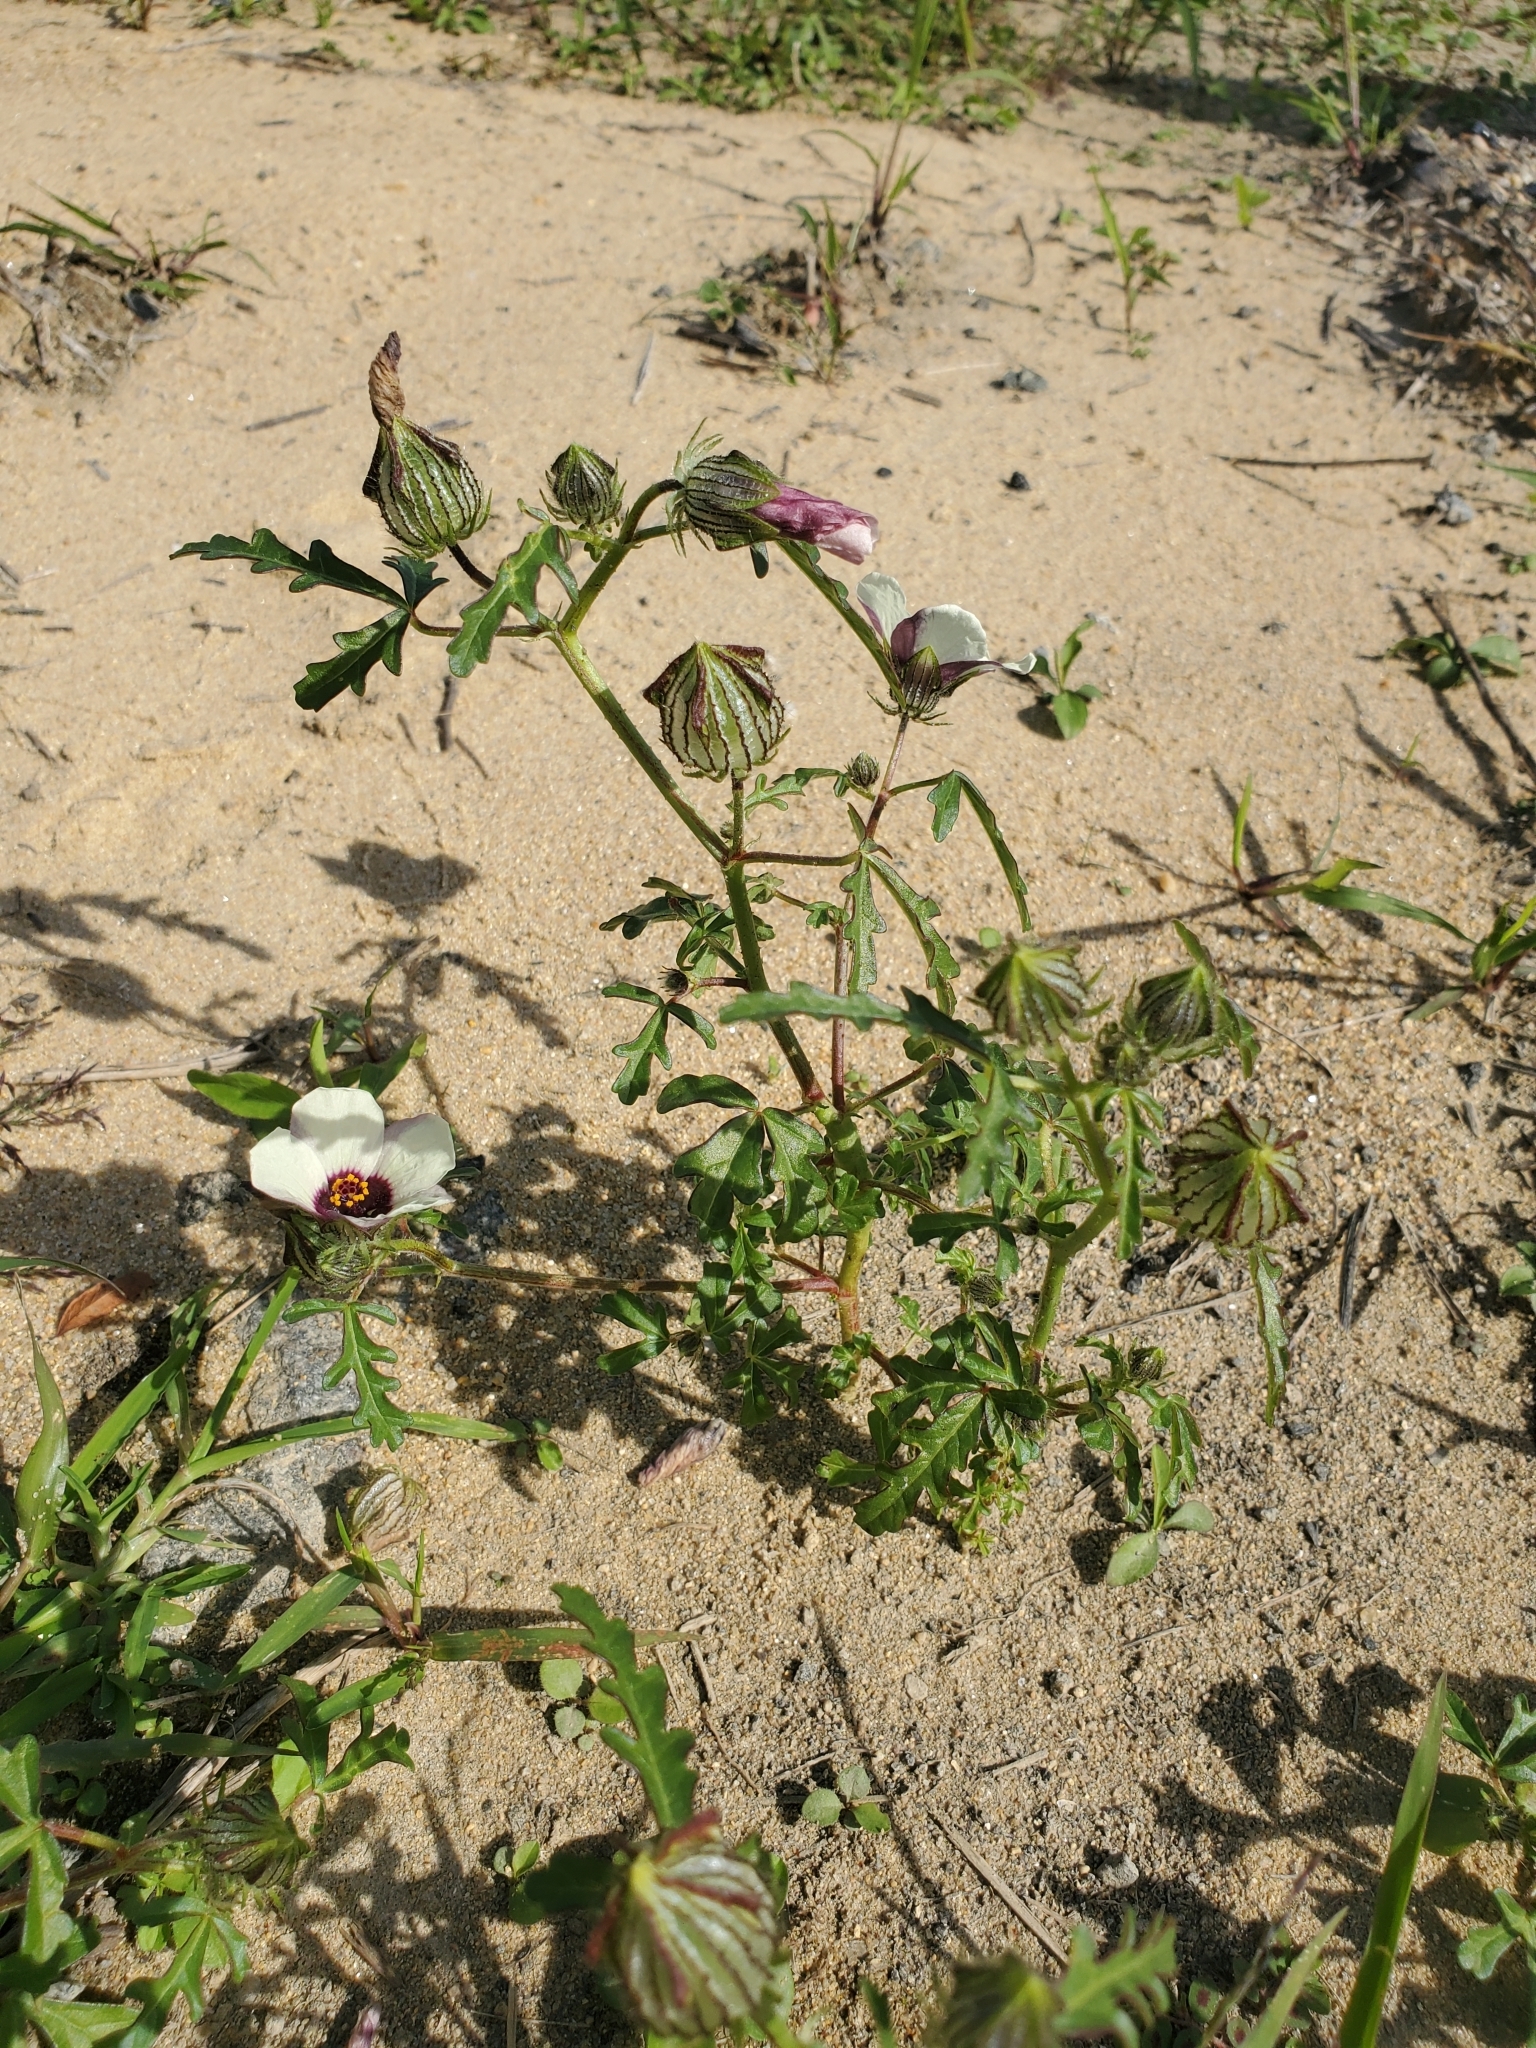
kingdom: Plantae
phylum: Tracheophyta
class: Magnoliopsida
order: Malvales
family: Malvaceae
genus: Hibiscus
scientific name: Hibiscus trionum
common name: Bladder ketmia
